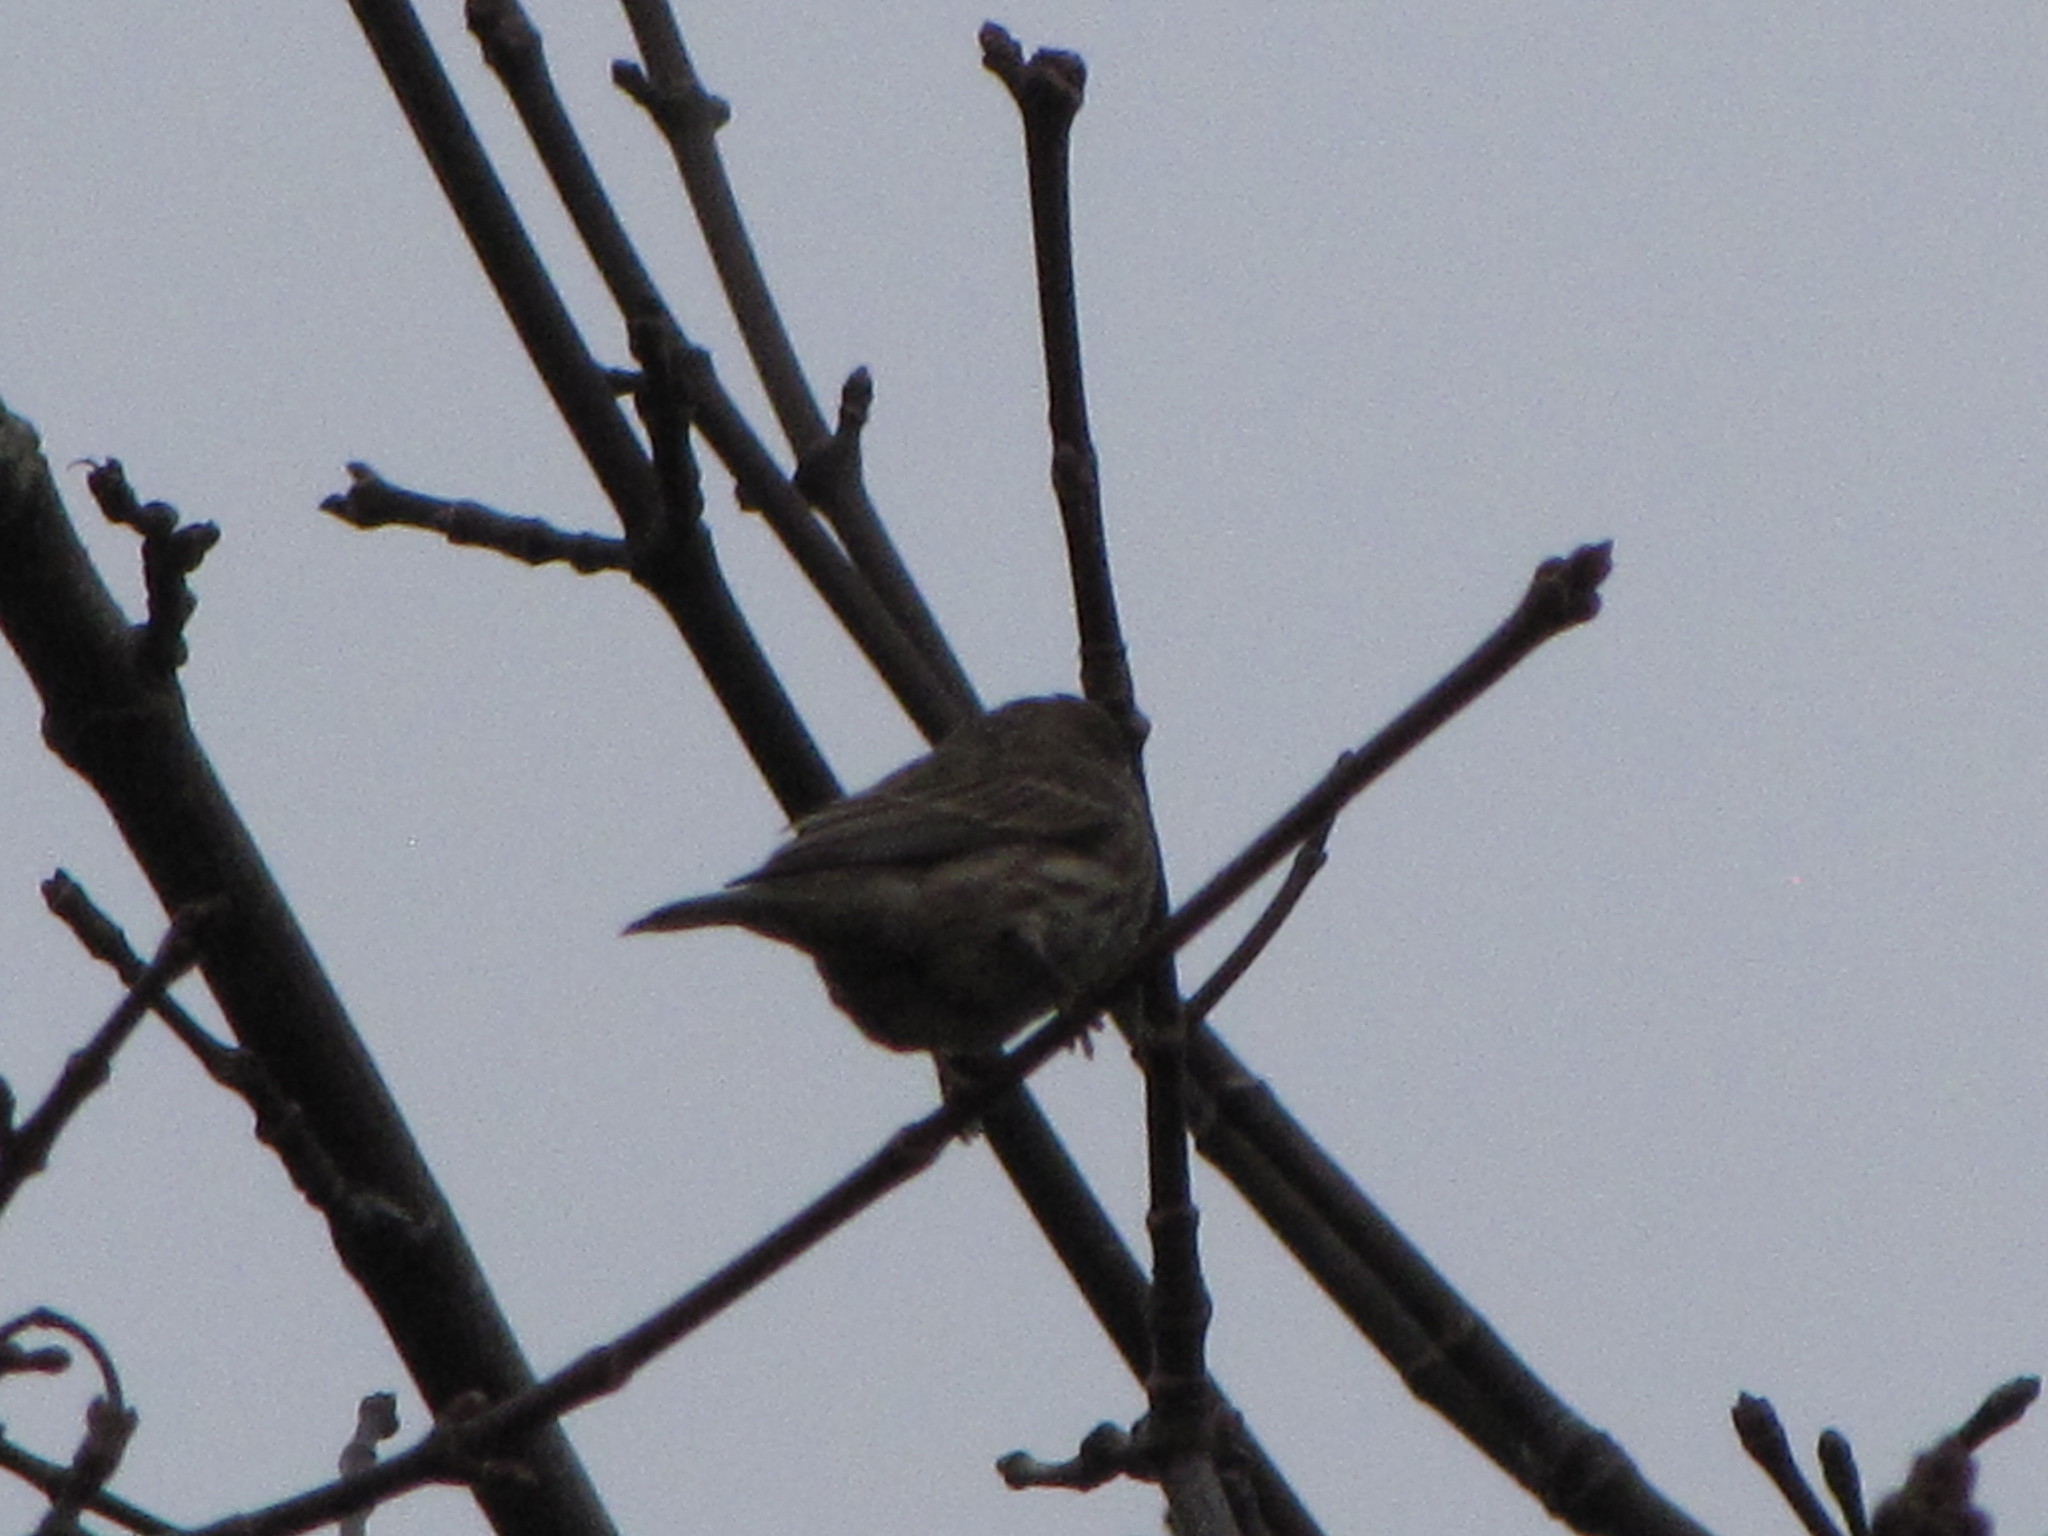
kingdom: Animalia
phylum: Chordata
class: Aves
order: Passeriformes
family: Fringillidae
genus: Haemorhous
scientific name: Haemorhous mexicanus
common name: House finch
